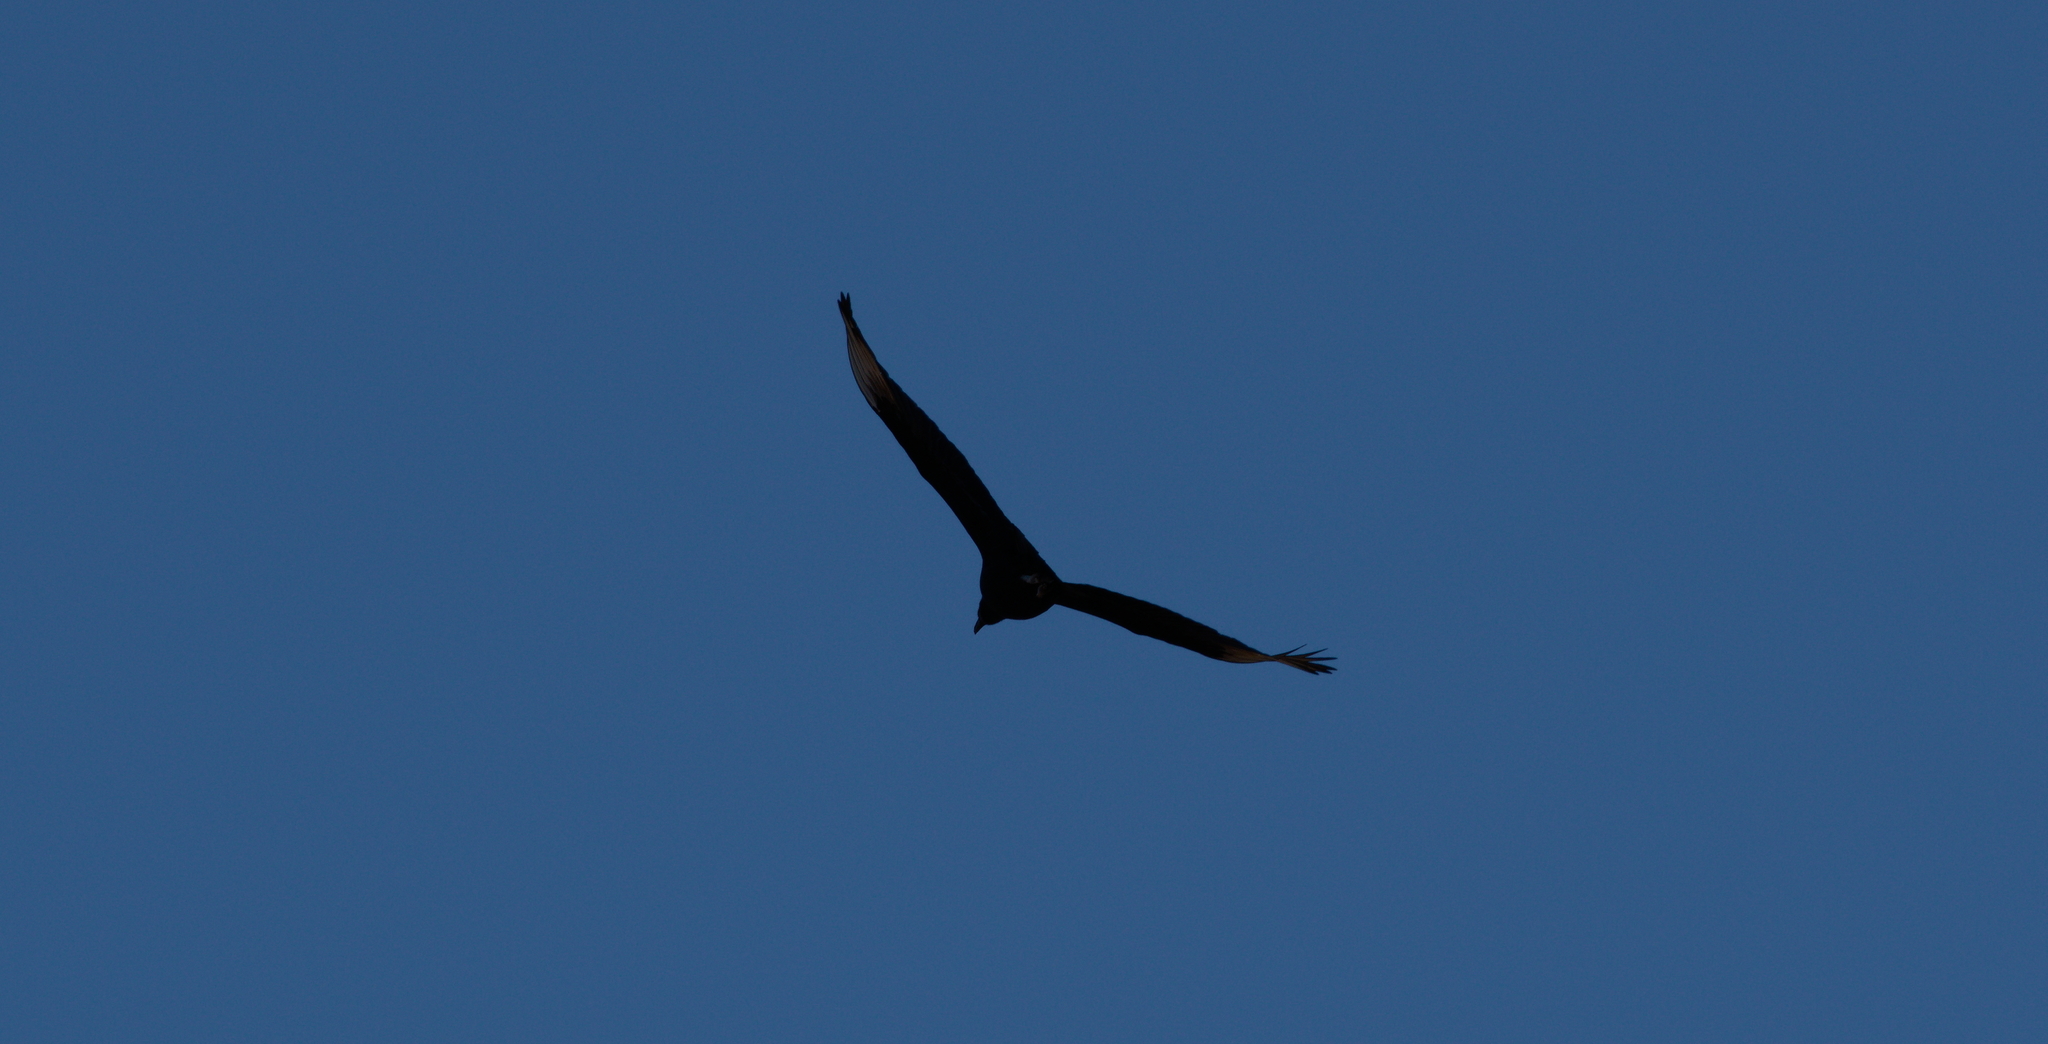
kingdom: Animalia
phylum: Chordata
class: Aves
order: Accipitriformes
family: Cathartidae
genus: Coragyps
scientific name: Coragyps atratus
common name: Black vulture
